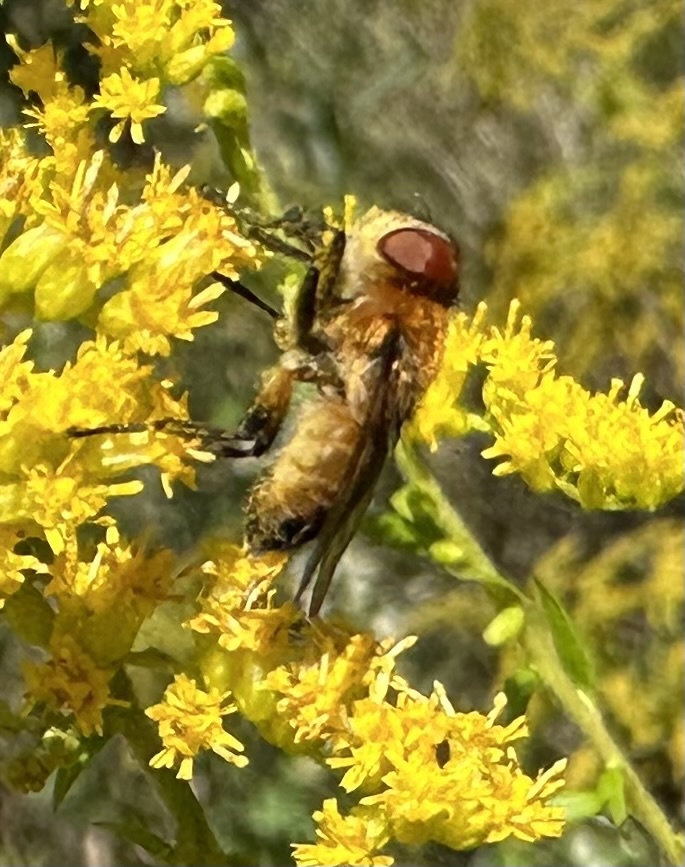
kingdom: Animalia
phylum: Arthropoda
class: Insecta
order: Diptera
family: Tachinidae
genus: Phasia
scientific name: Phasia hemiptera
